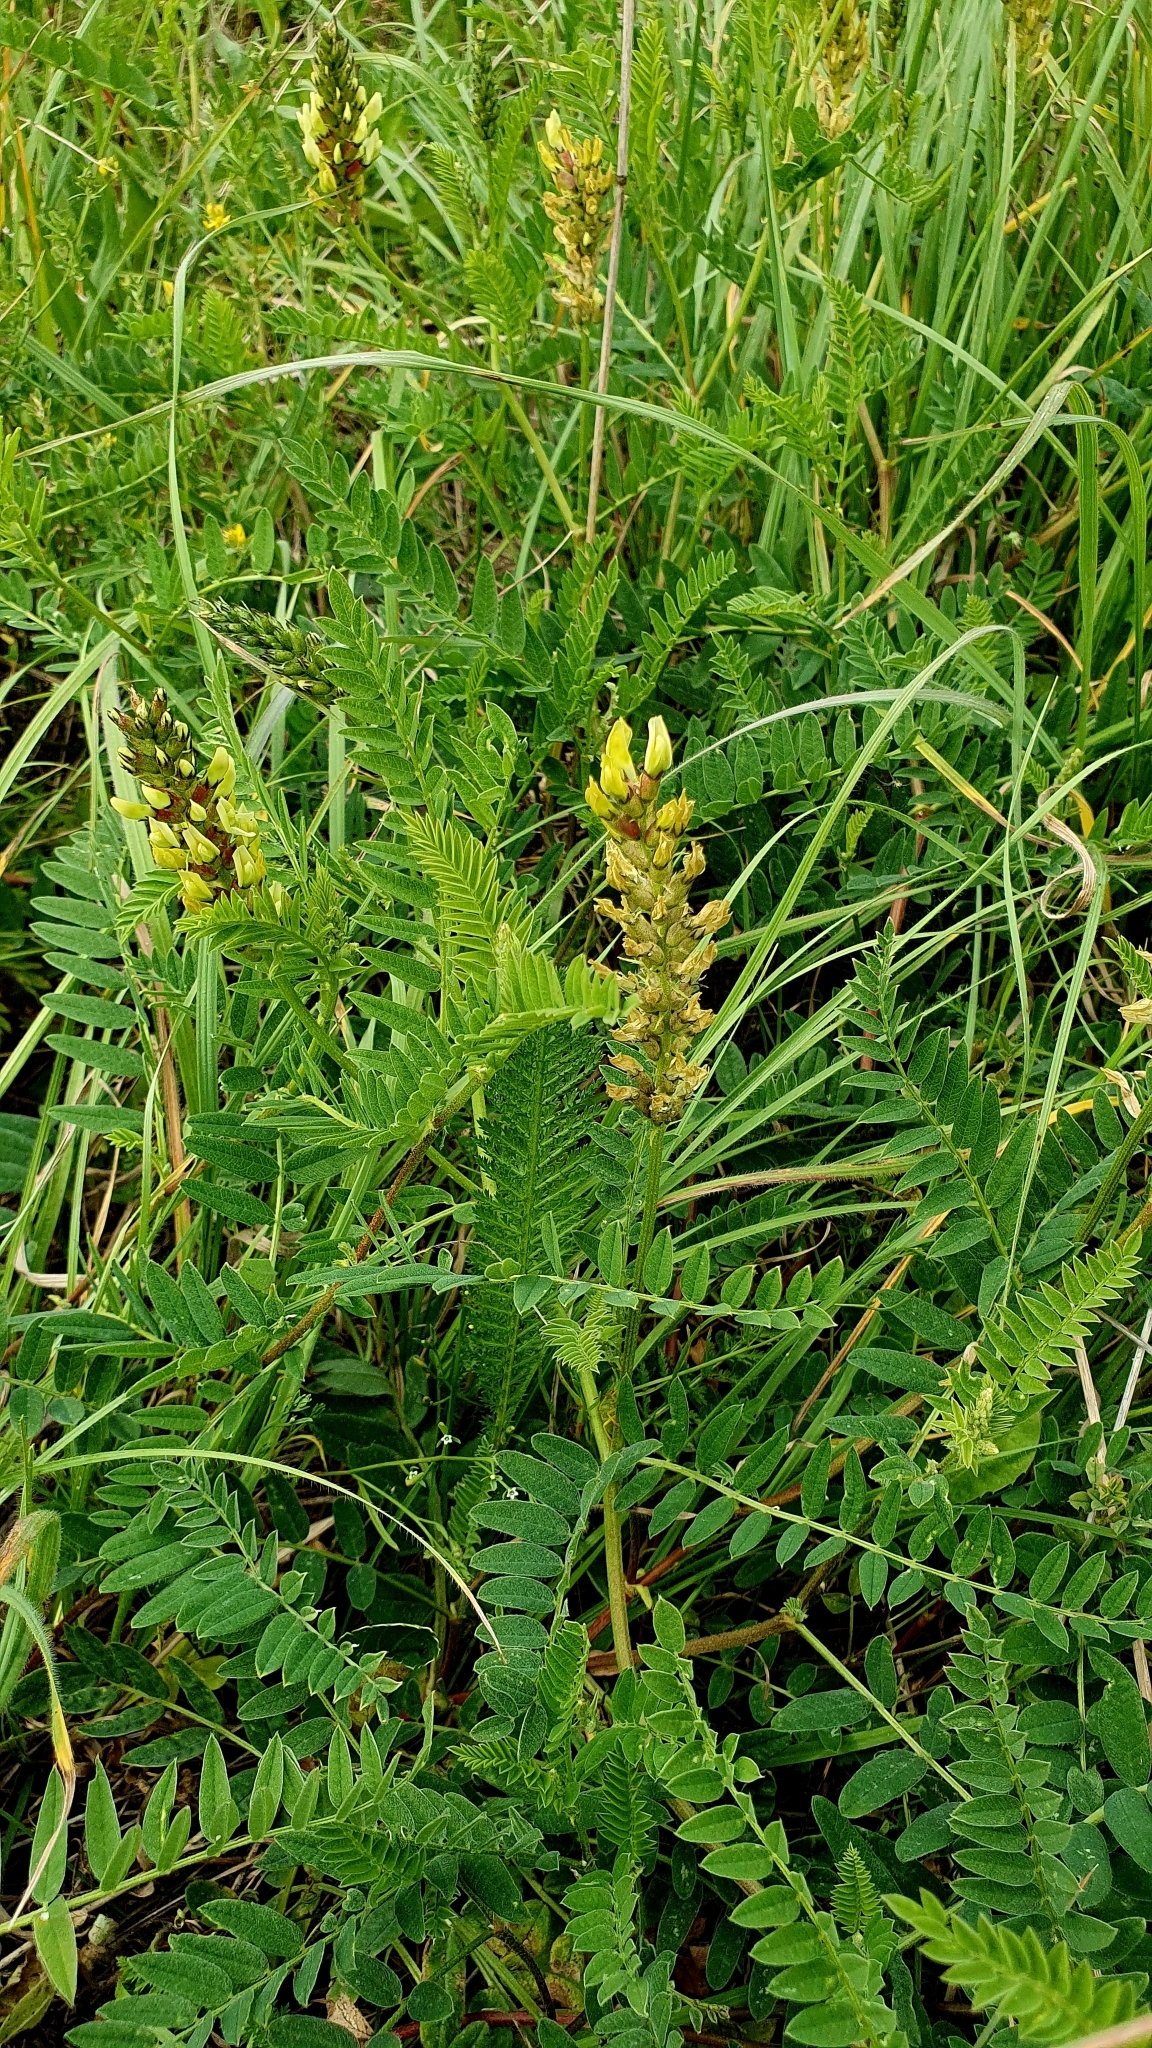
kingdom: Plantae
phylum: Tracheophyta
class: Magnoliopsida
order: Fabales
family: Fabaceae
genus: Astragalus
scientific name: Astragalus cicer
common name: Chick-pea milk-vetch
